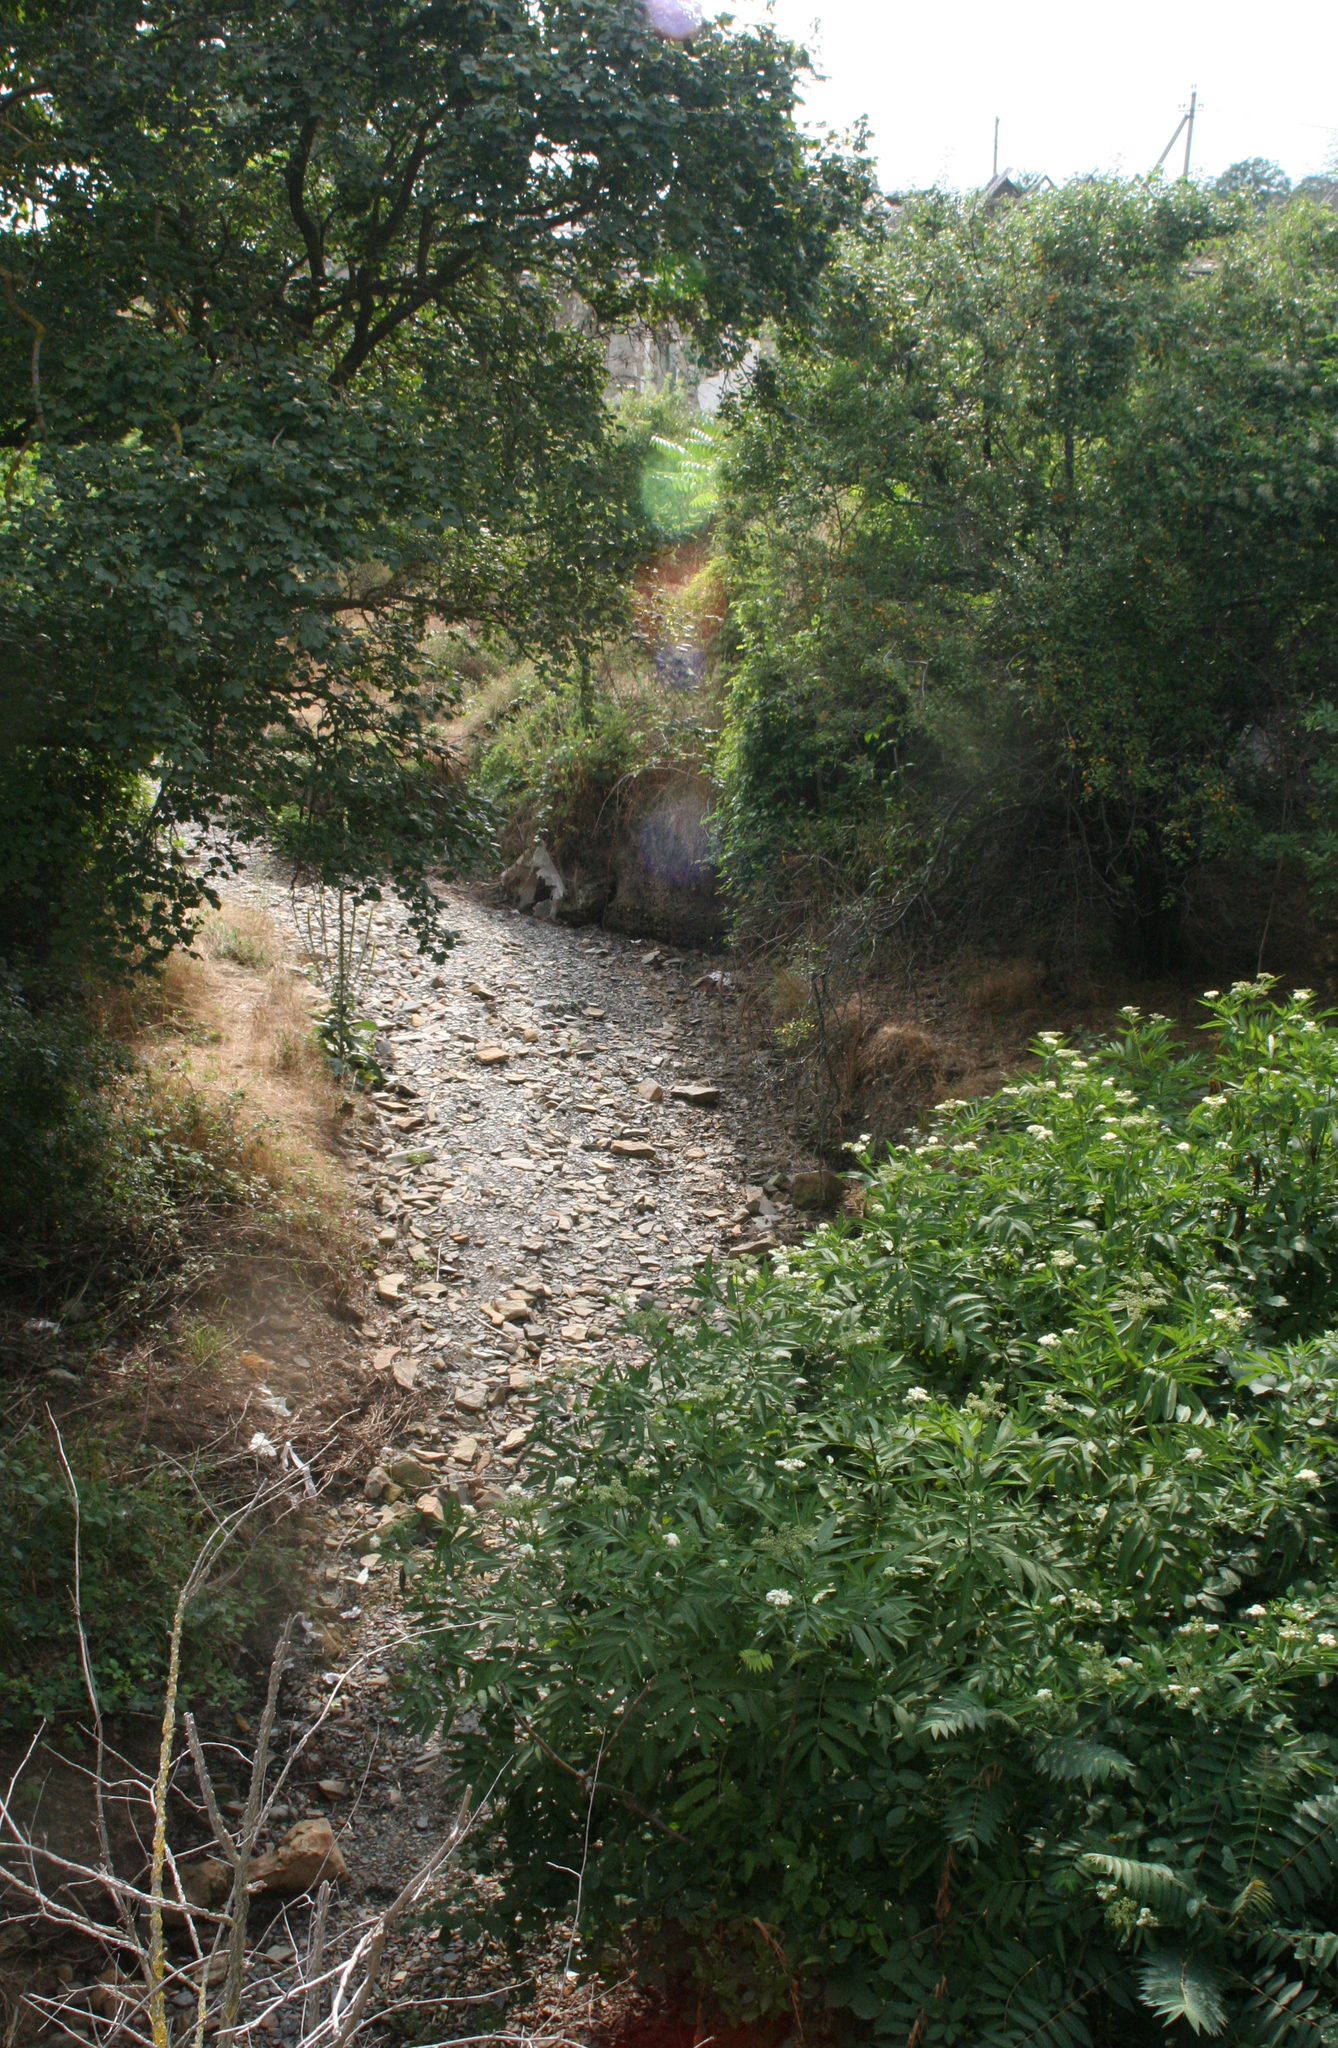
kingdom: Plantae
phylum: Tracheophyta
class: Magnoliopsida
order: Dipsacales
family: Viburnaceae
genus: Sambucus
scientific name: Sambucus ebulus
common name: Dwarf elder
